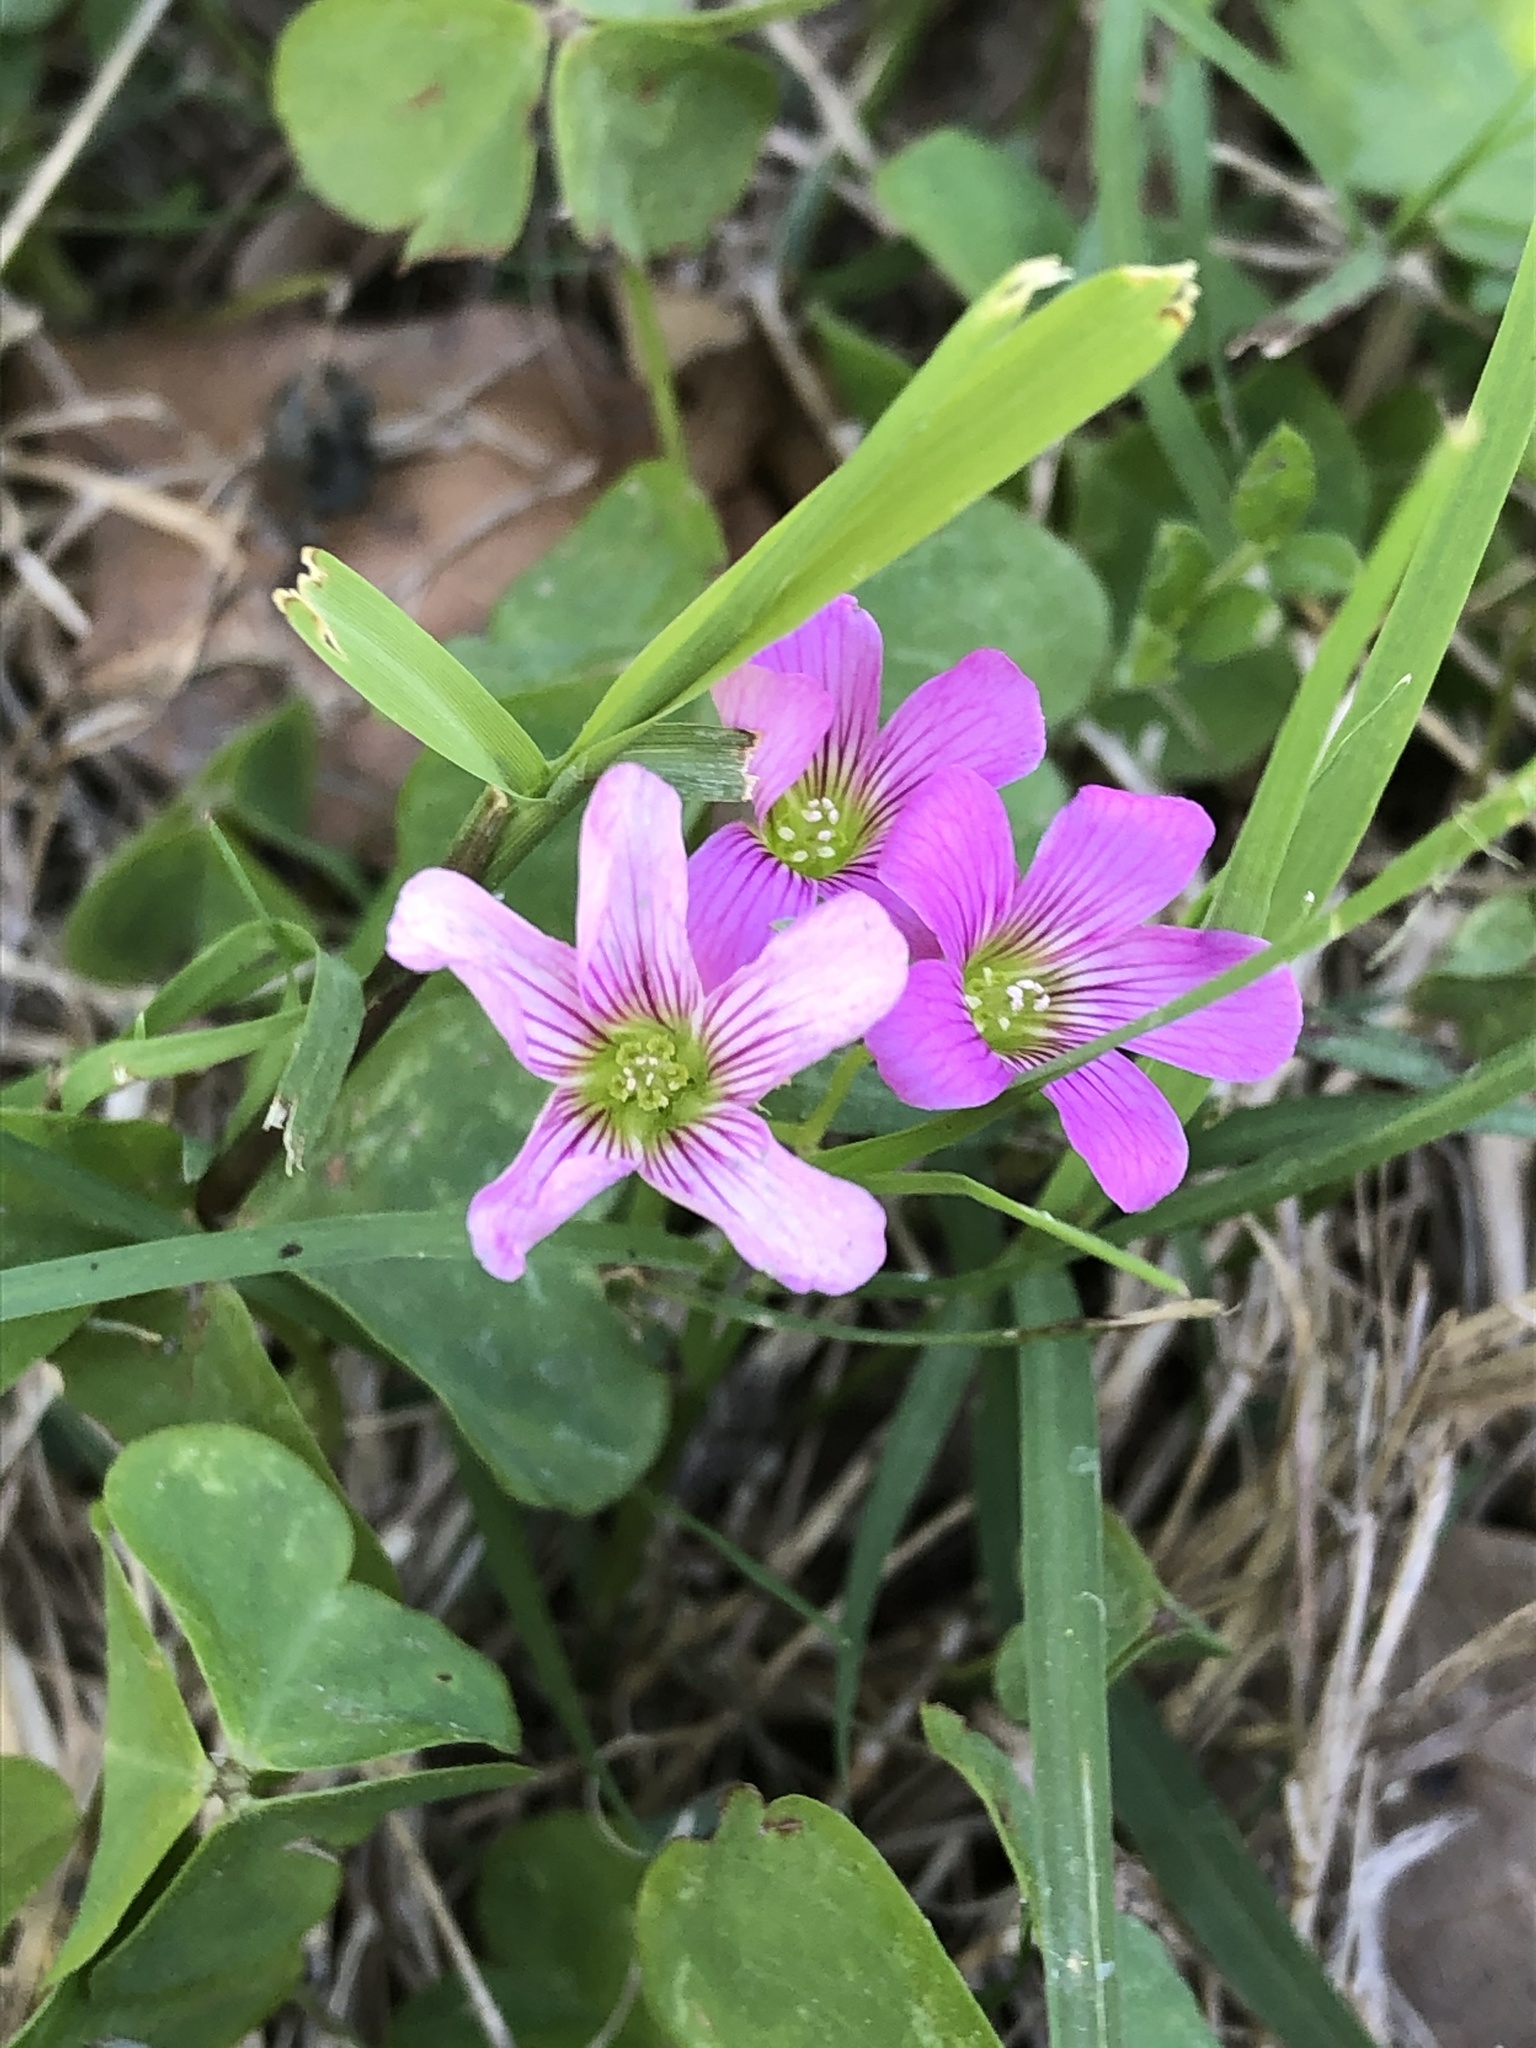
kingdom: Plantae
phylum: Tracheophyta
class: Magnoliopsida
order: Oxalidales
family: Oxalidaceae
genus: Oxalis
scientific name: Oxalis debilis
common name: Large-flowered pink-sorrel
